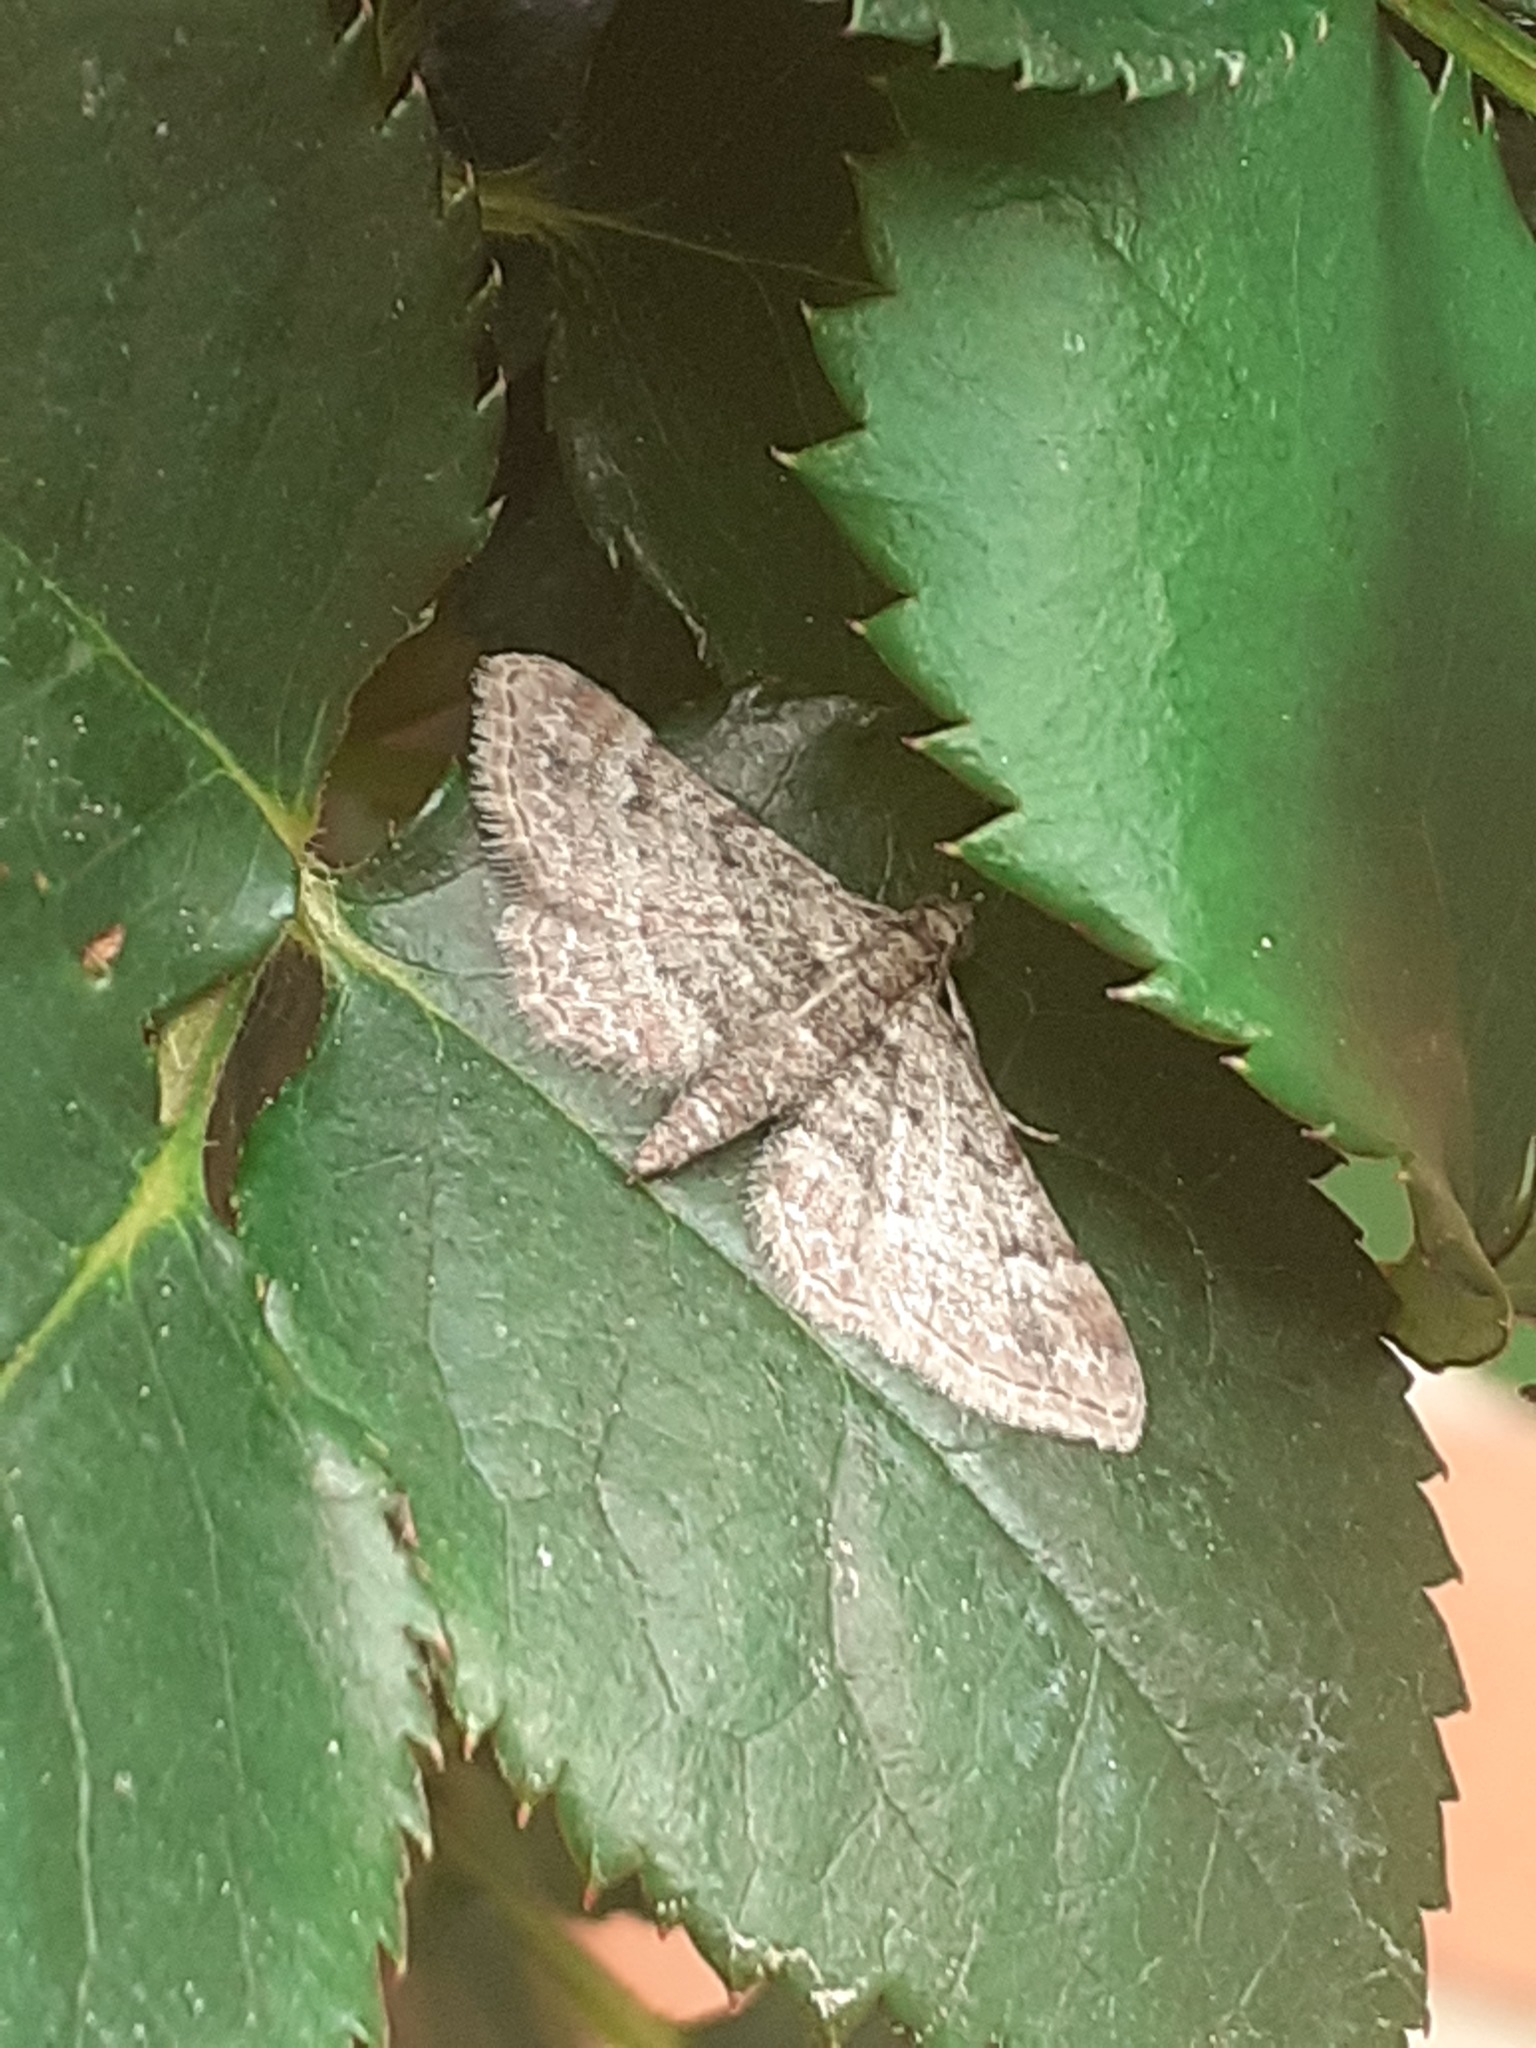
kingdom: Animalia
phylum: Arthropoda
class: Insecta
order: Lepidoptera
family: Geometridae
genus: Gymnoscelis
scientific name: Gymnoscelis rufifasciata
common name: Double-striped pug
